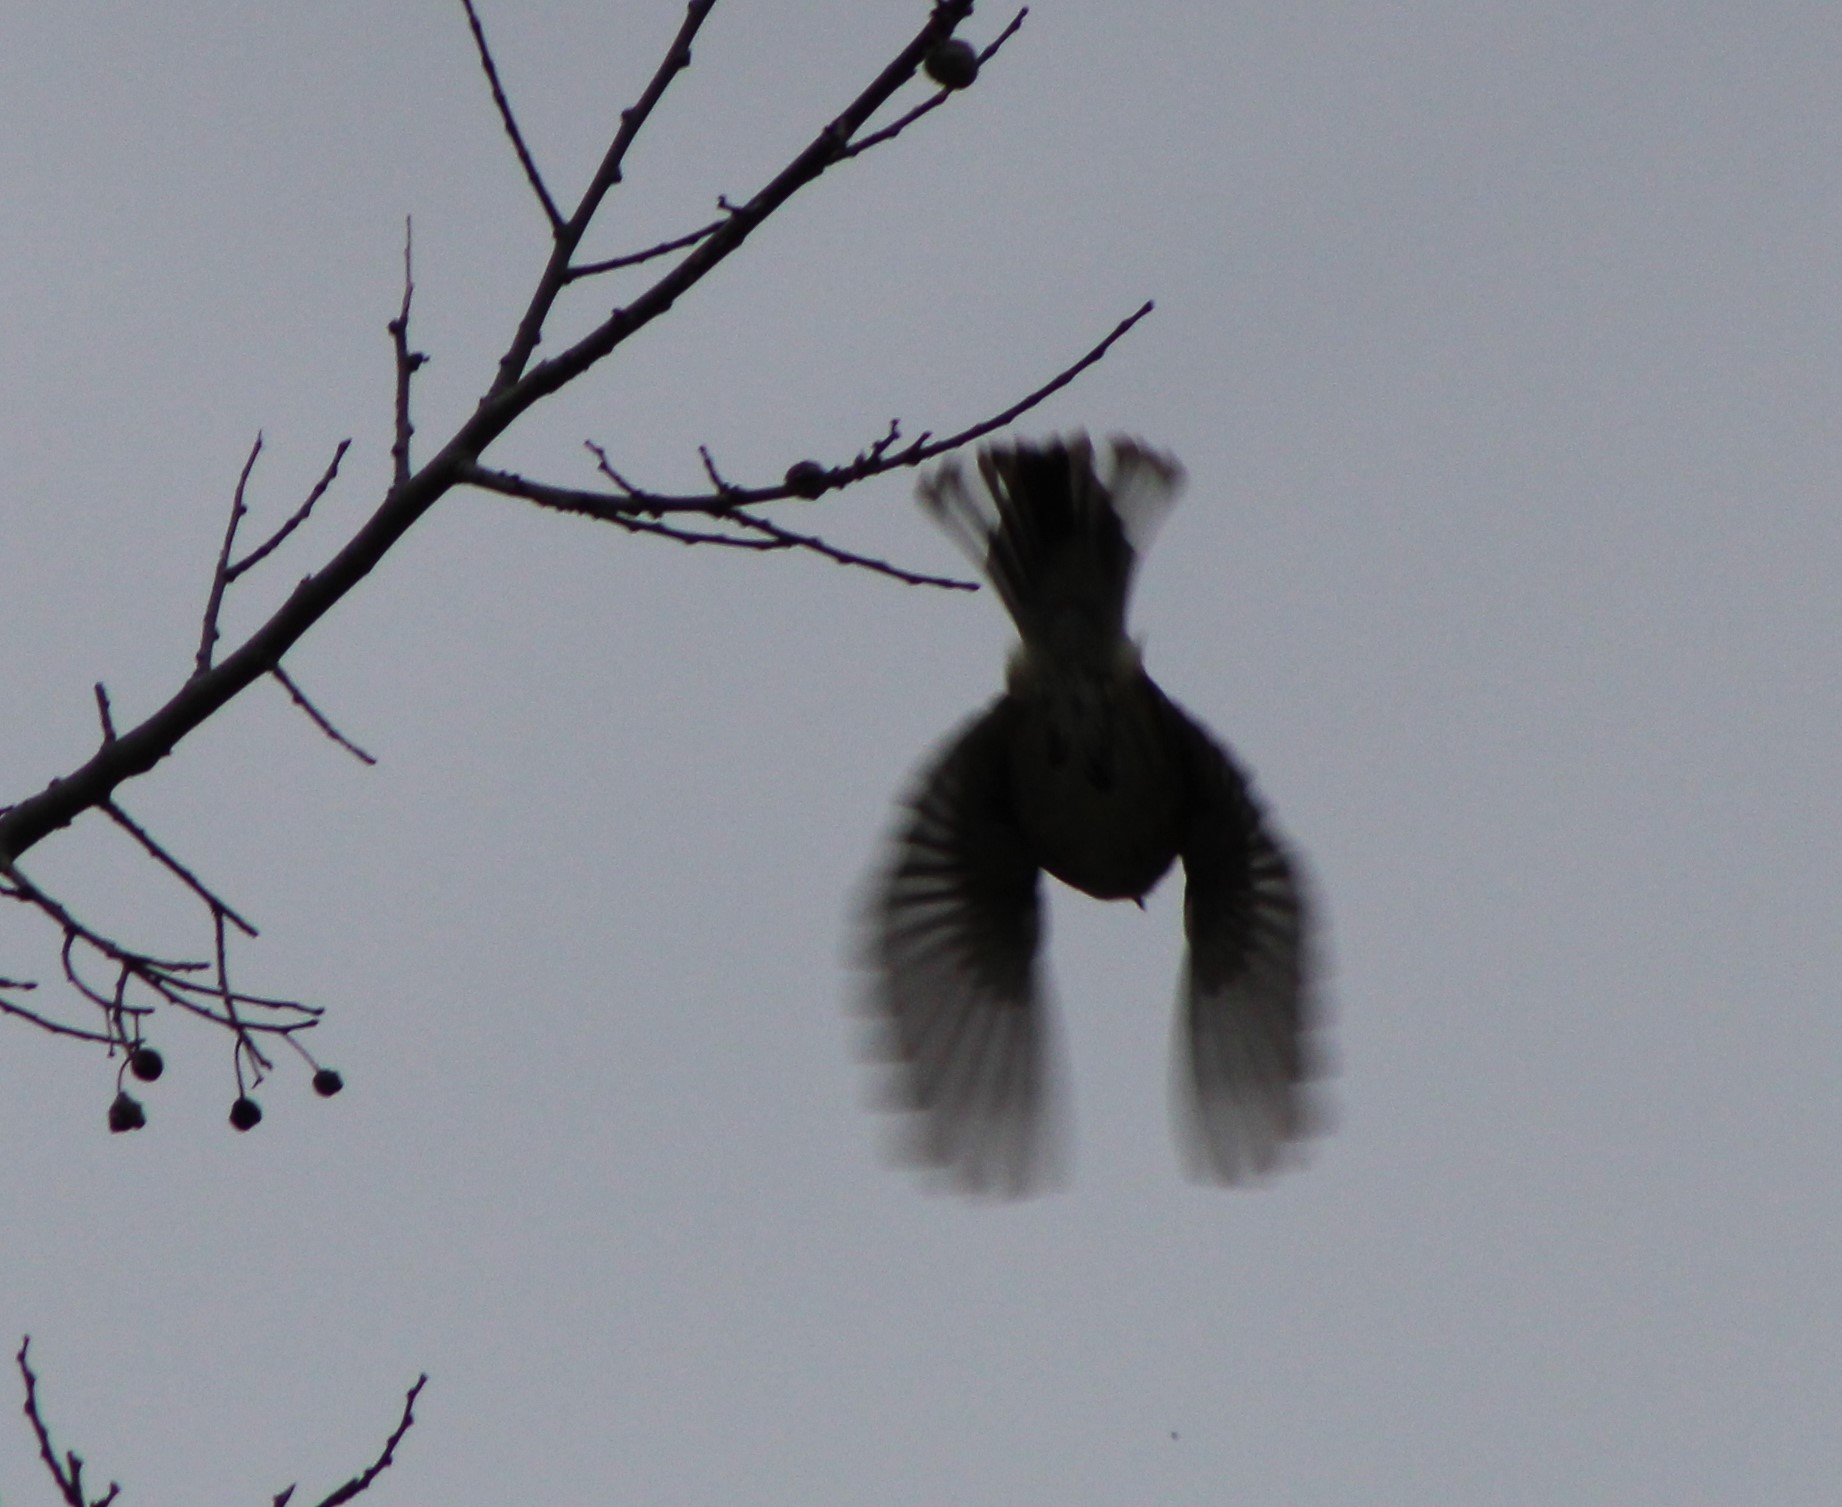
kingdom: Animalia
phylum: Chordata
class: Aves
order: Passeriformes
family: Parulidae
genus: Setophaga
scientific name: Setophaga coronata
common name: Myrtle warbler
